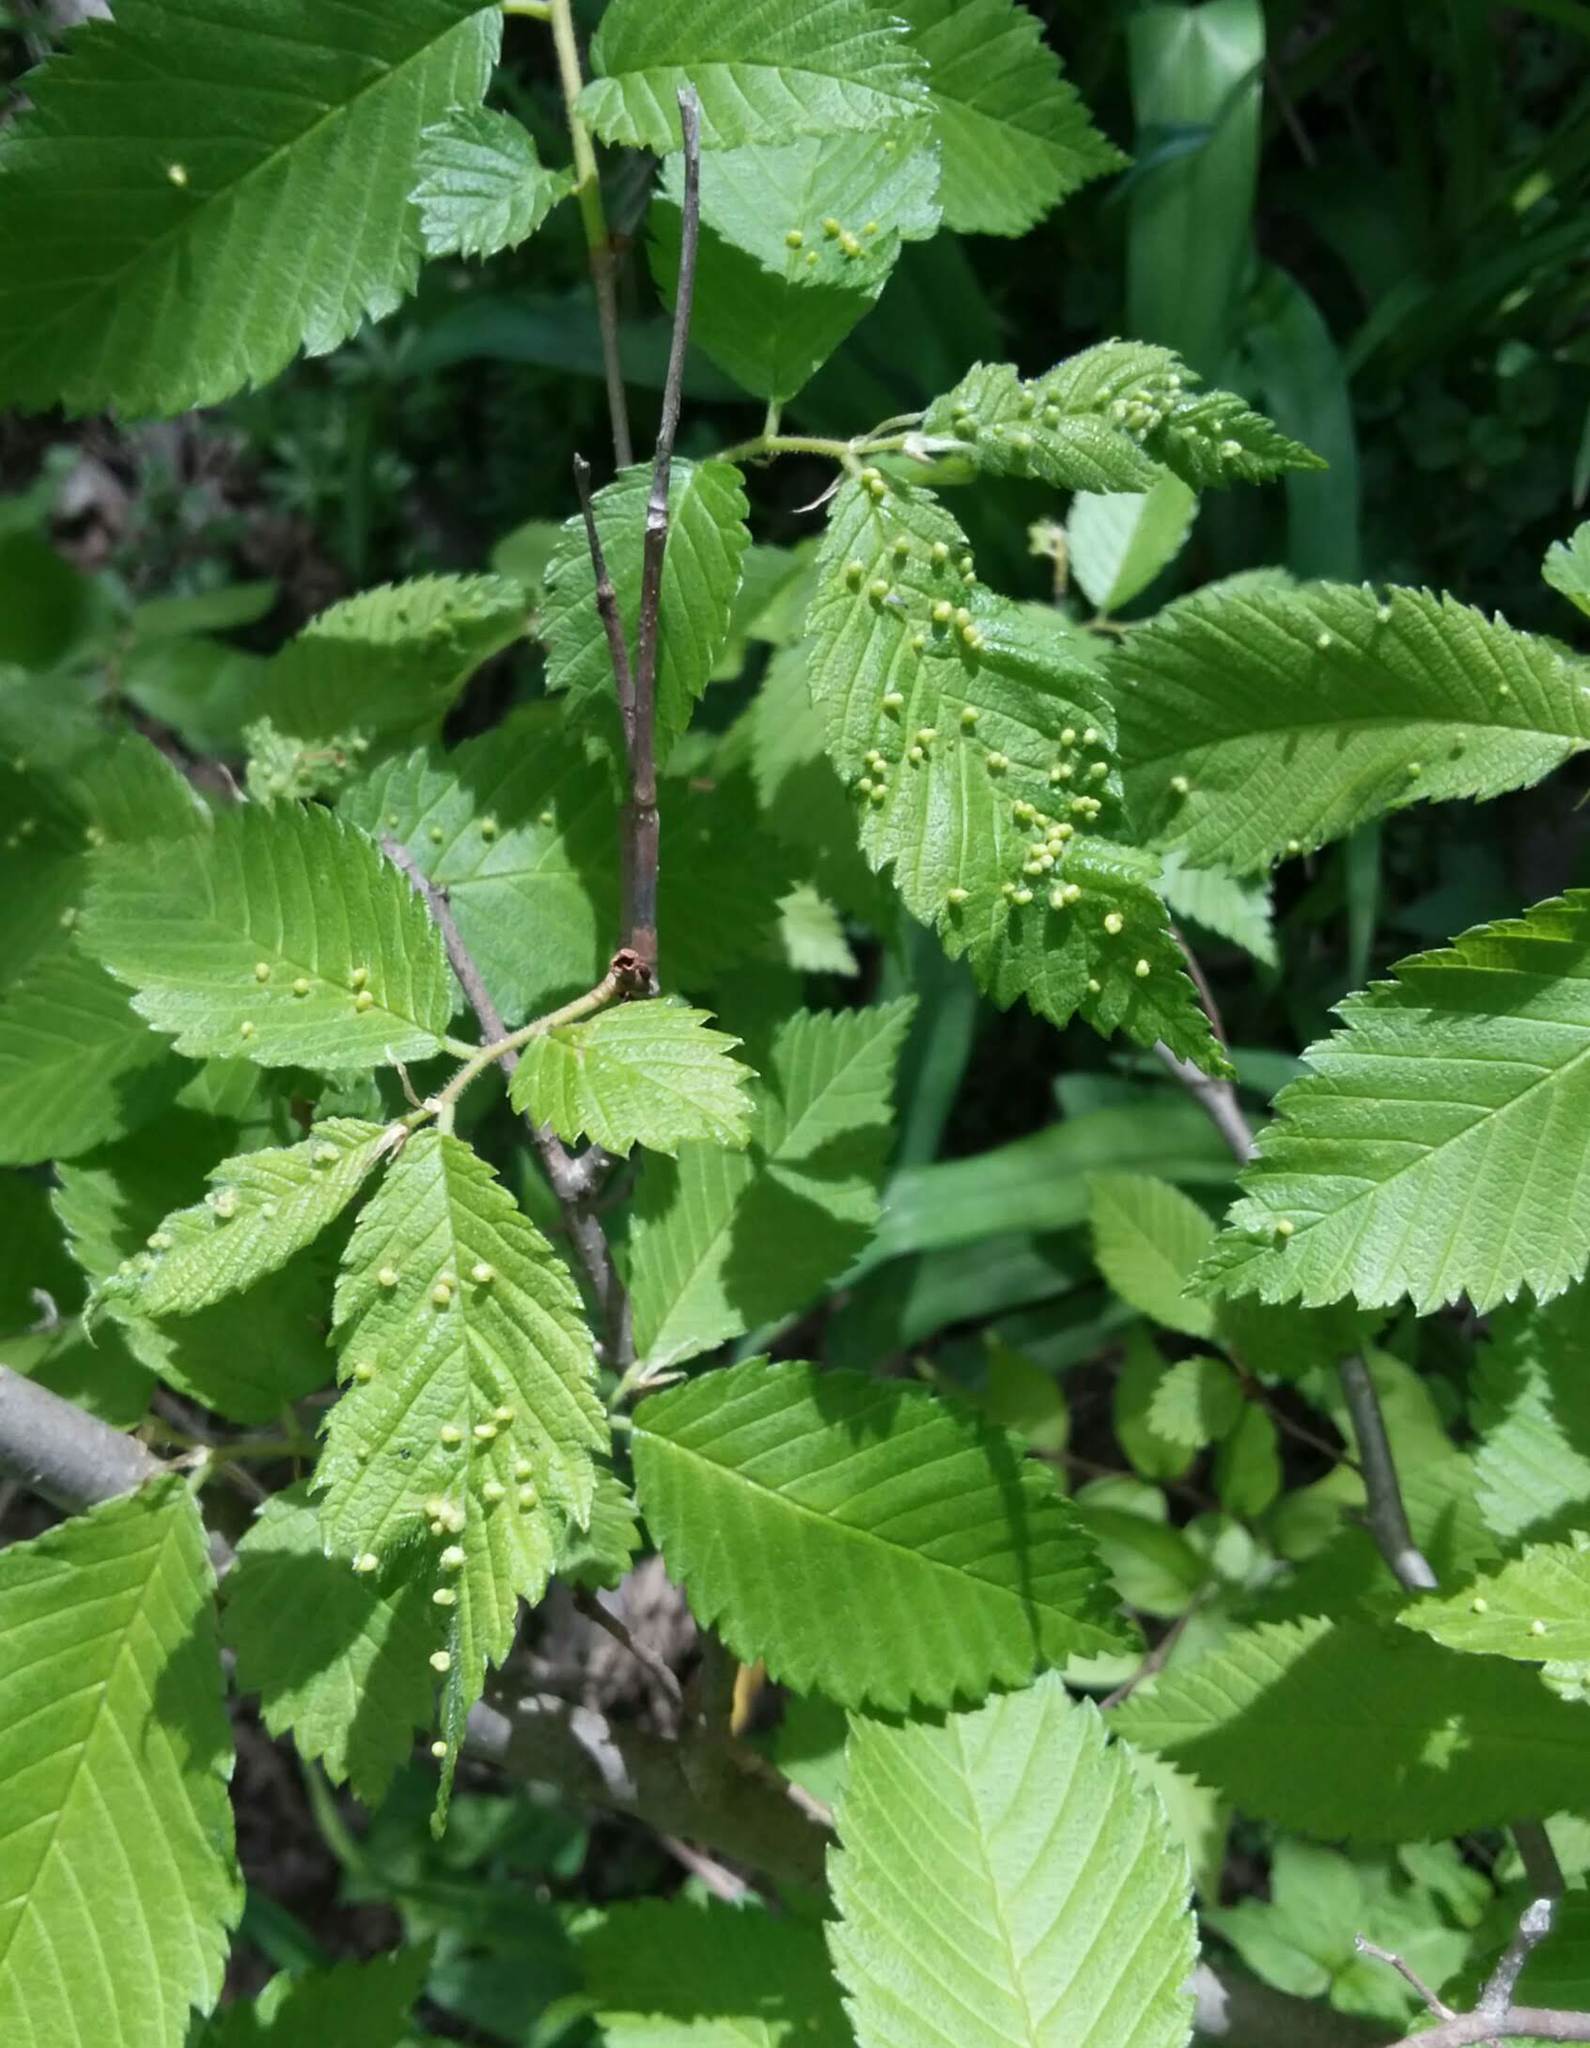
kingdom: Animalia
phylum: Arthropoda
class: Arachnida
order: Trombidiformes
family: Eriophyidae
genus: Aceria
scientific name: Aceria
